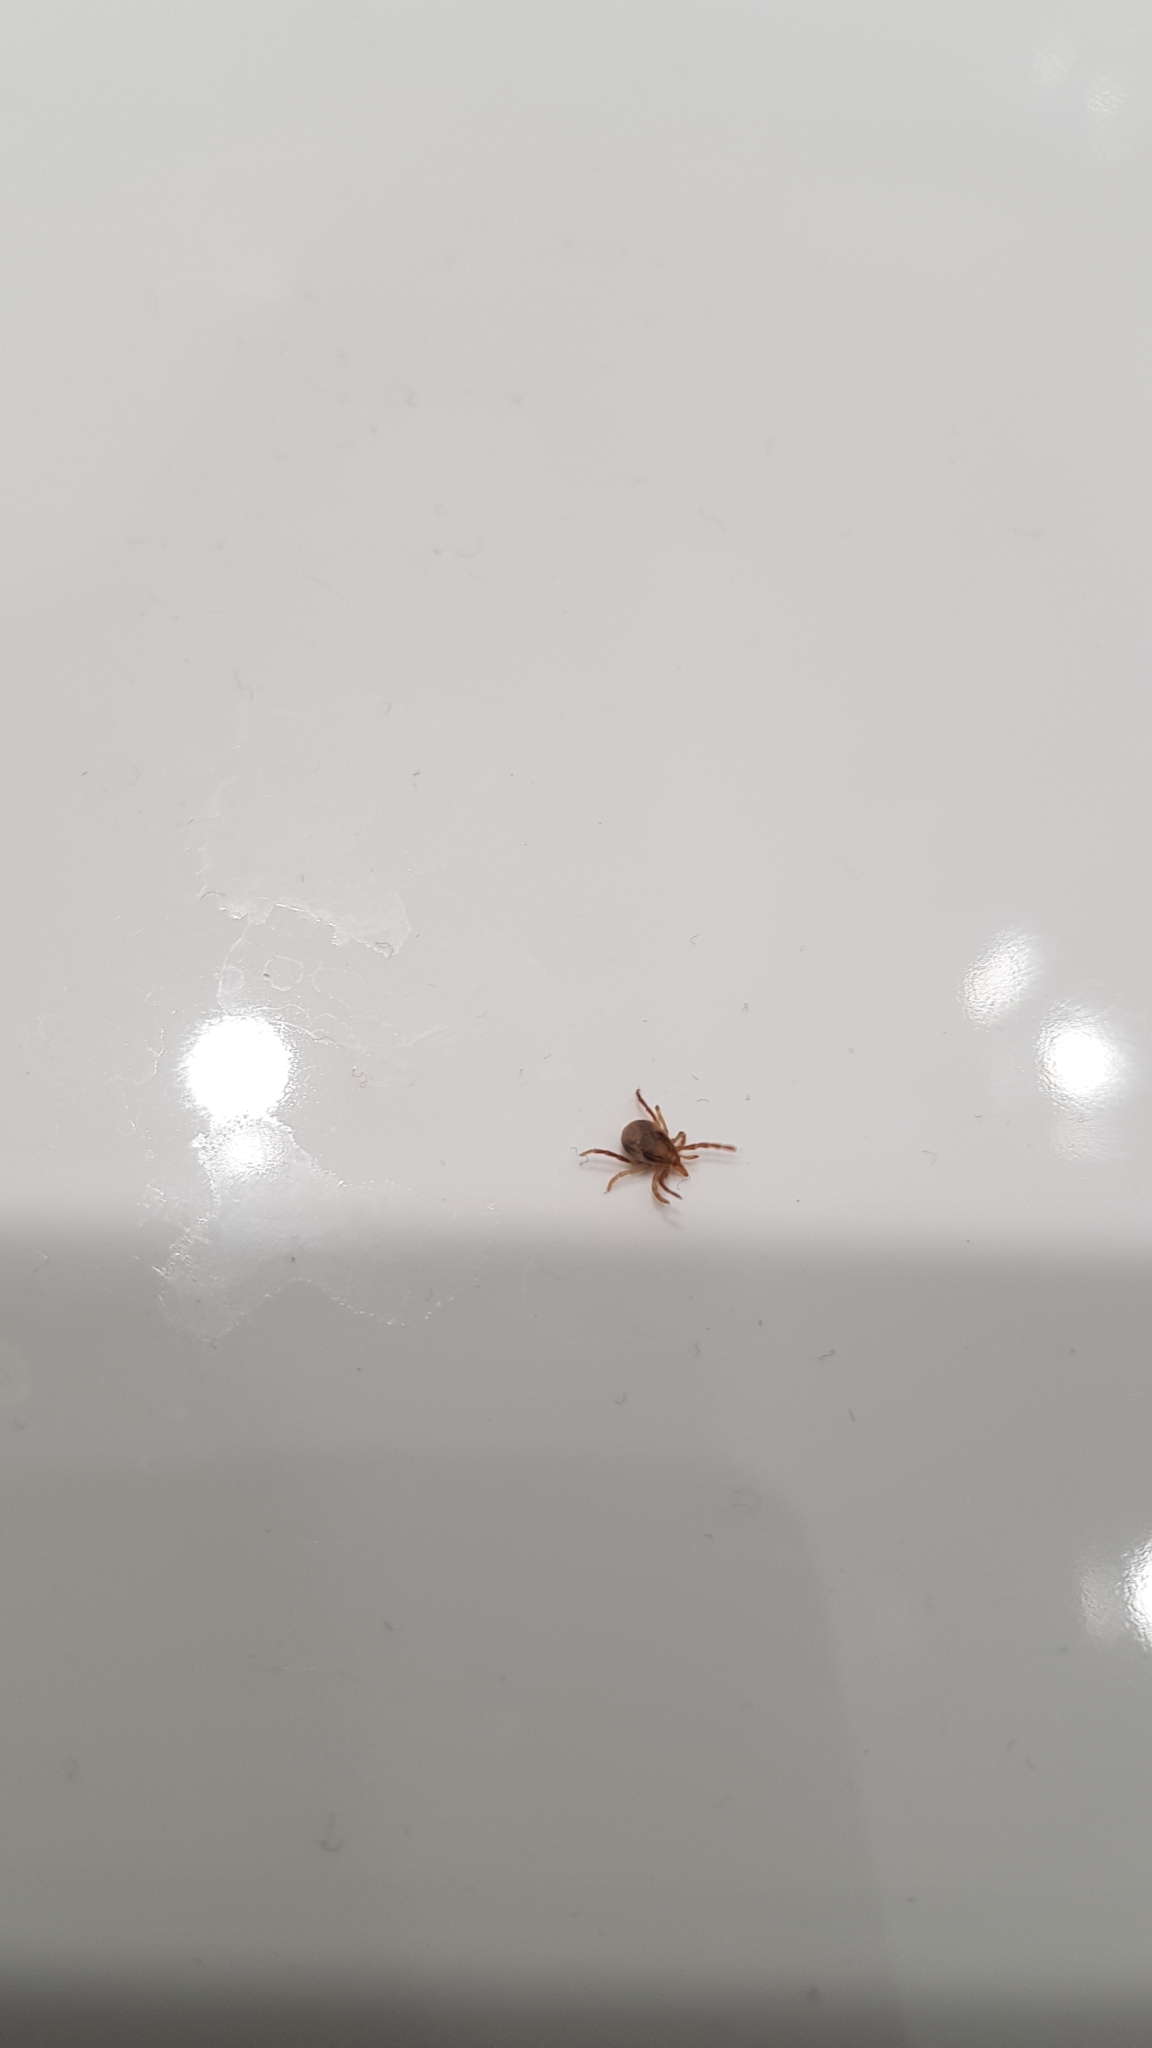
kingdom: Animalia
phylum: Arthropoda
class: Arachnida
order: Ixodida
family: Ixodidae
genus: Ixodes
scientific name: Ixodes holocyclus
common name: Australian paralysis tick
